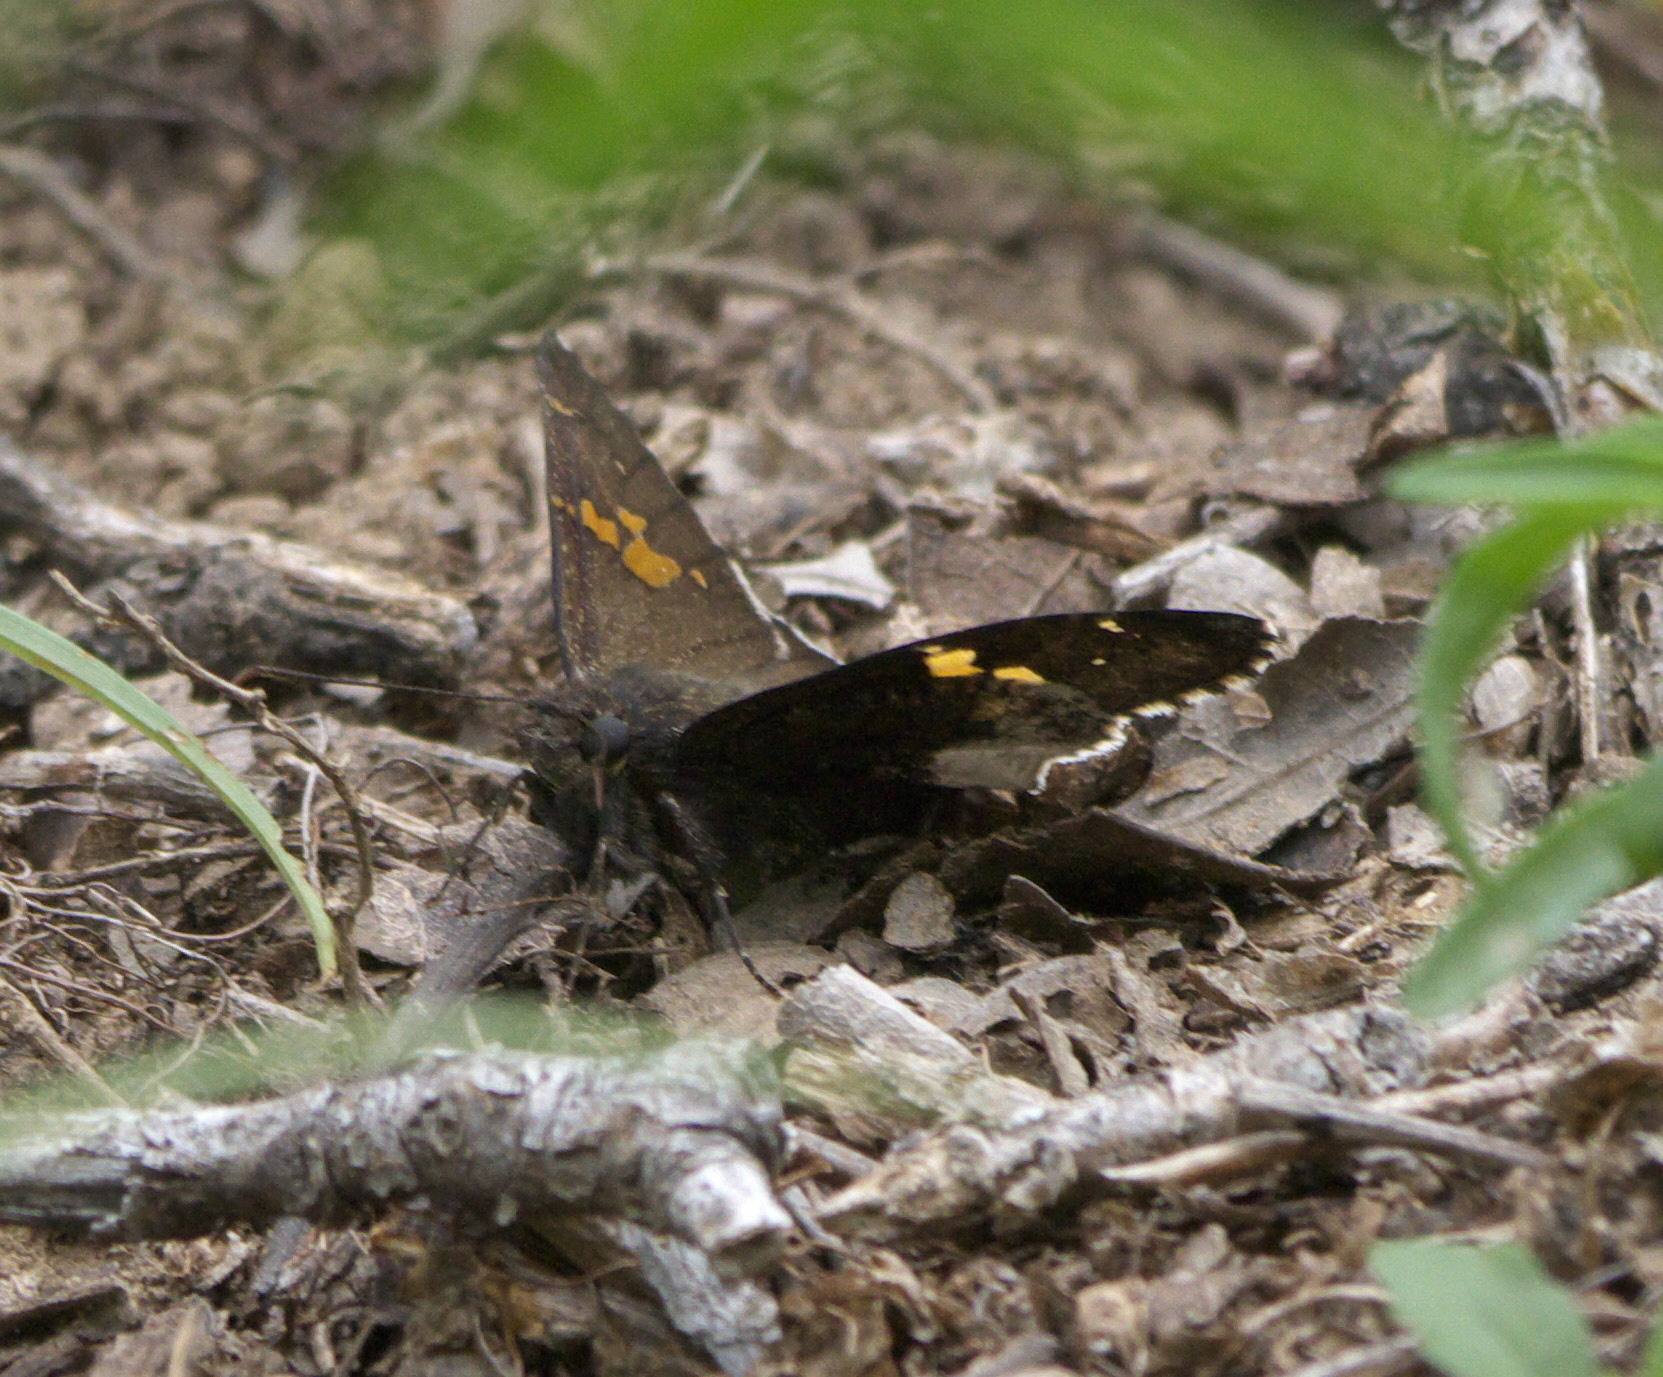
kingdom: Animalia
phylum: Arthropoda
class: Insecta
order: Lepidoptera
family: Hesperiidae
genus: Thorybes
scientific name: Thorybes lyciades
